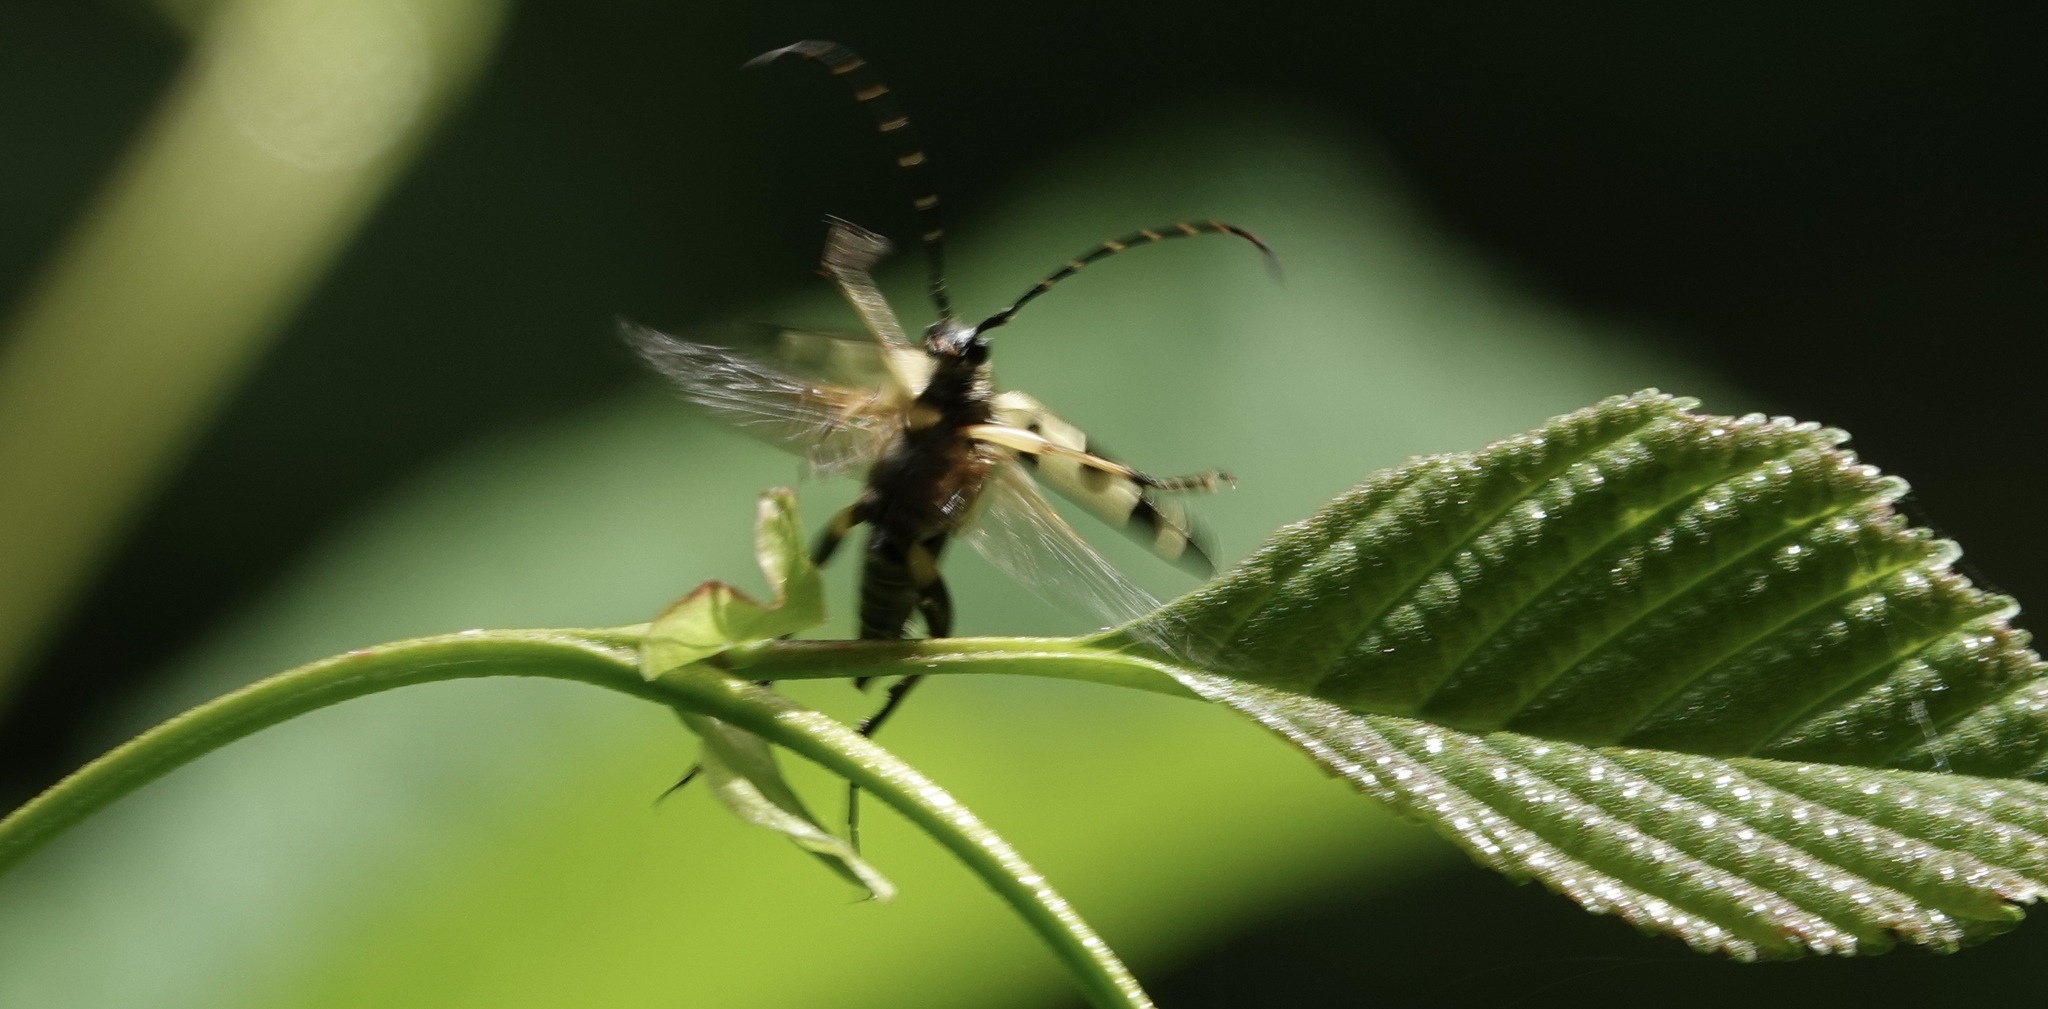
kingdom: Animalia
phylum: Arthropoda
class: Insecta
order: Coleoptera
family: Cerambycidae
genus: Rutpela
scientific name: Rutpela maculata
